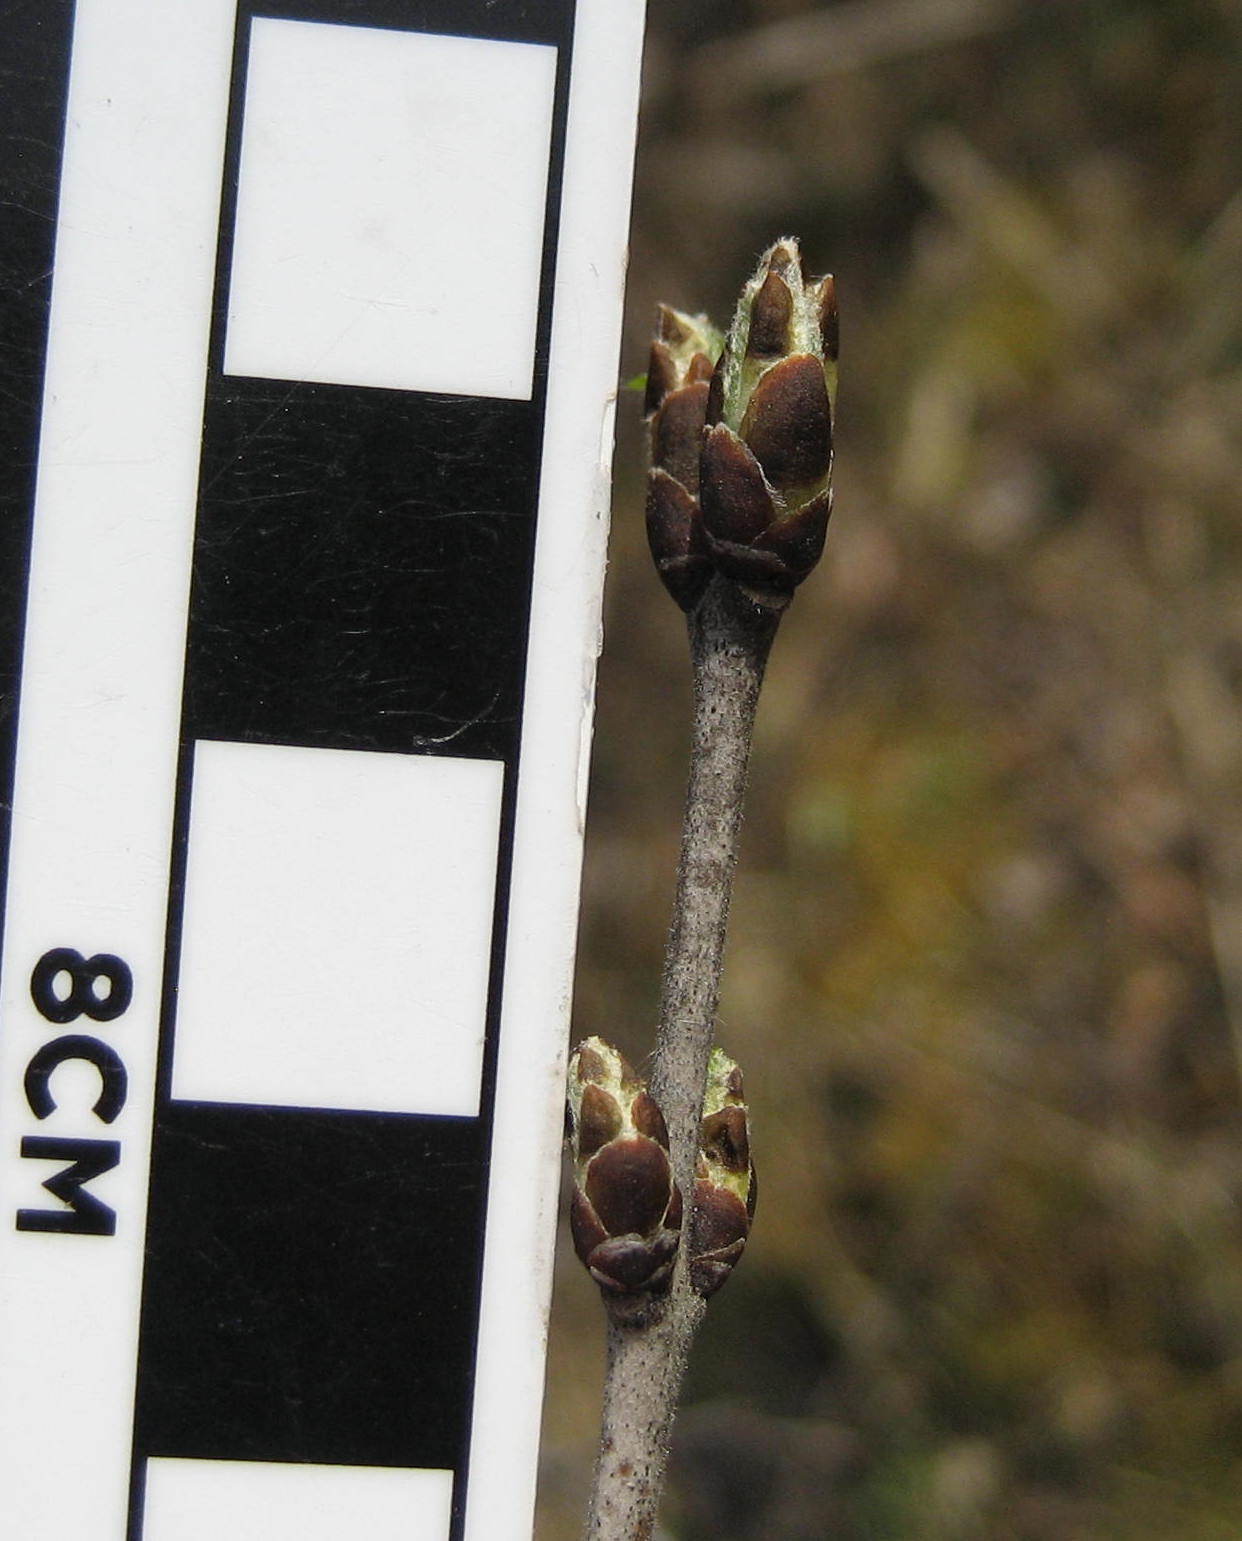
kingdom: Plantae
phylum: Tracheophyta
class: Magnoliopsida
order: Rosales
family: Rhamnaceae
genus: Rhamnus
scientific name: Rhamnus cathartica
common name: Common buckthorn
